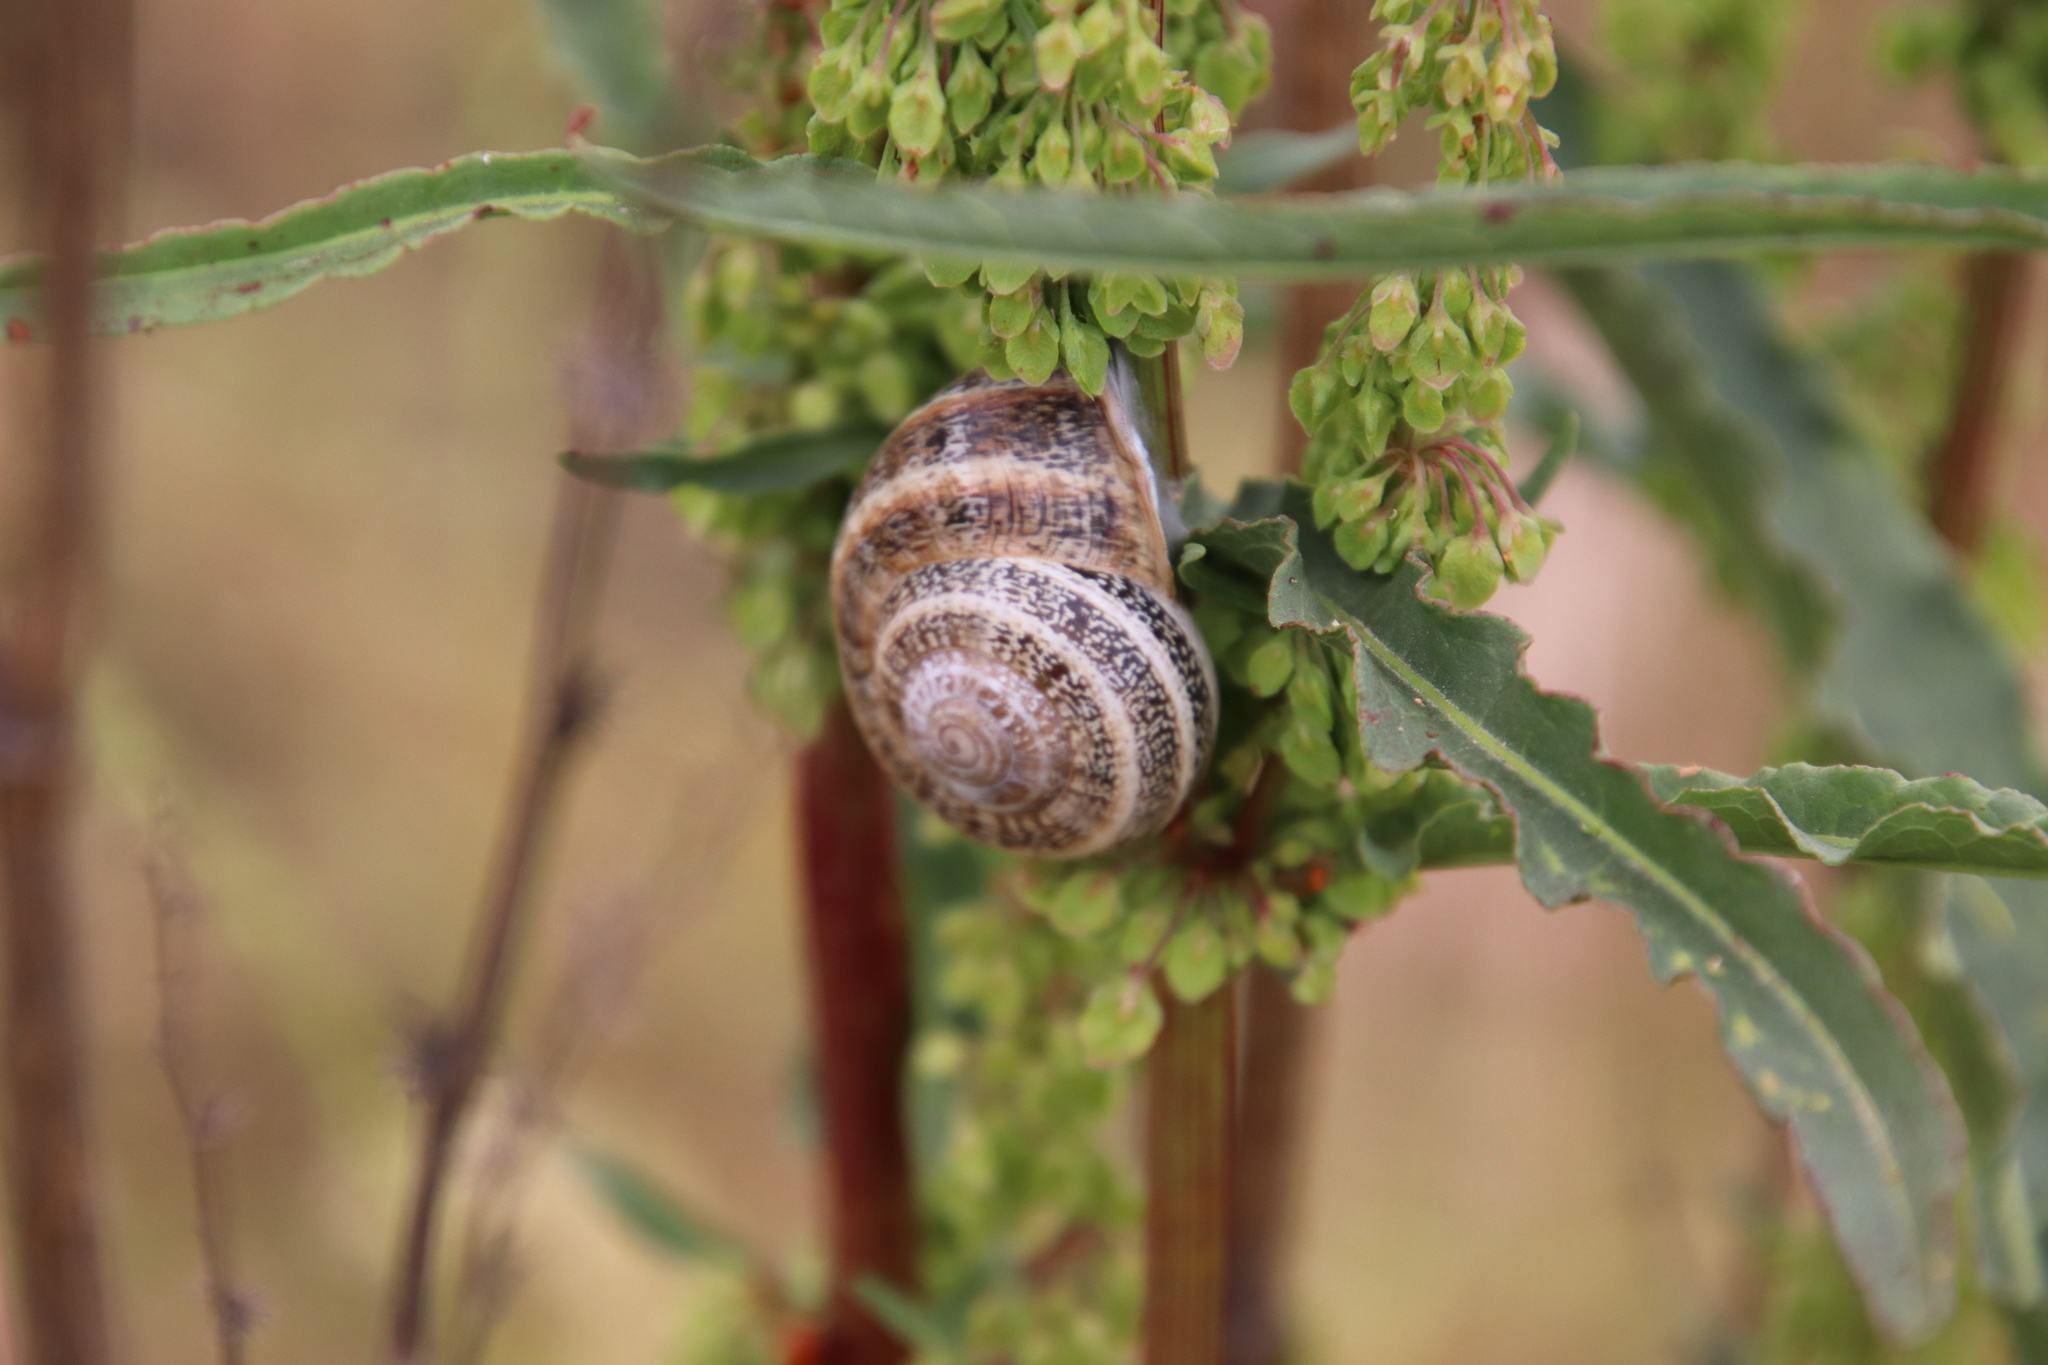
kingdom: Animalia
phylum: Mollusca
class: Gastropoda
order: Stylommatophora
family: Helicidae
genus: Otala
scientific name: Otala lactea
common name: Milk snail
